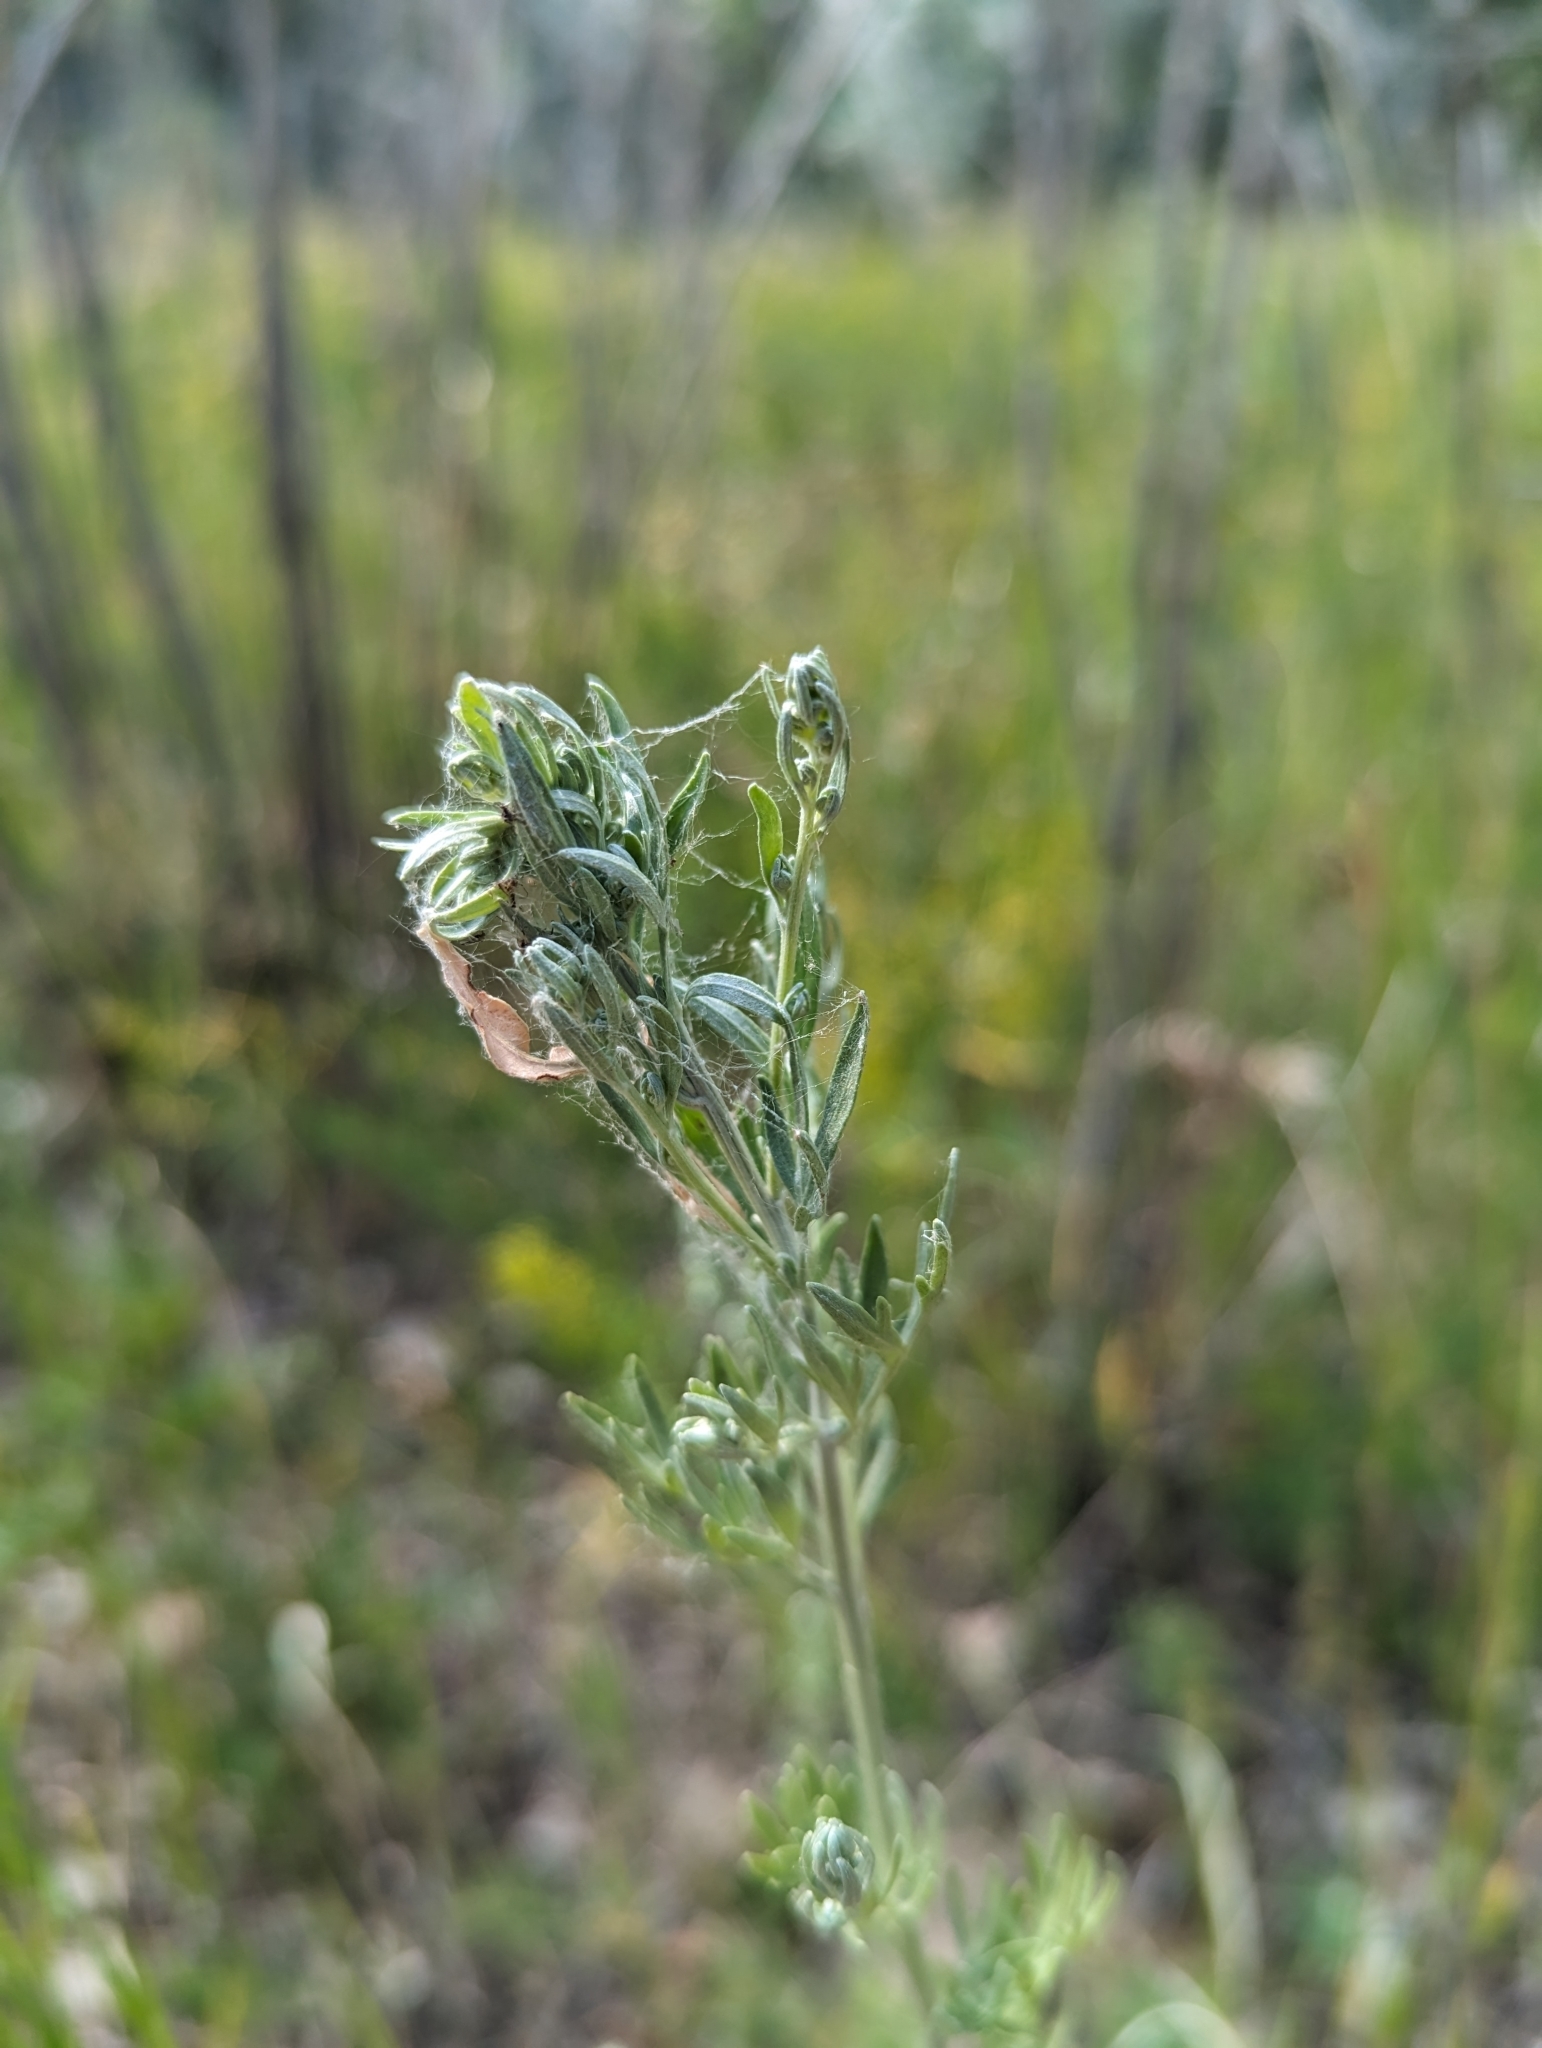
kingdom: Plantae
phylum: Tracheophyta
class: Magnoliopsida
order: Asterales
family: Asteraceae
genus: Artemisia
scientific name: Artemisia absinthium
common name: Wormwood
